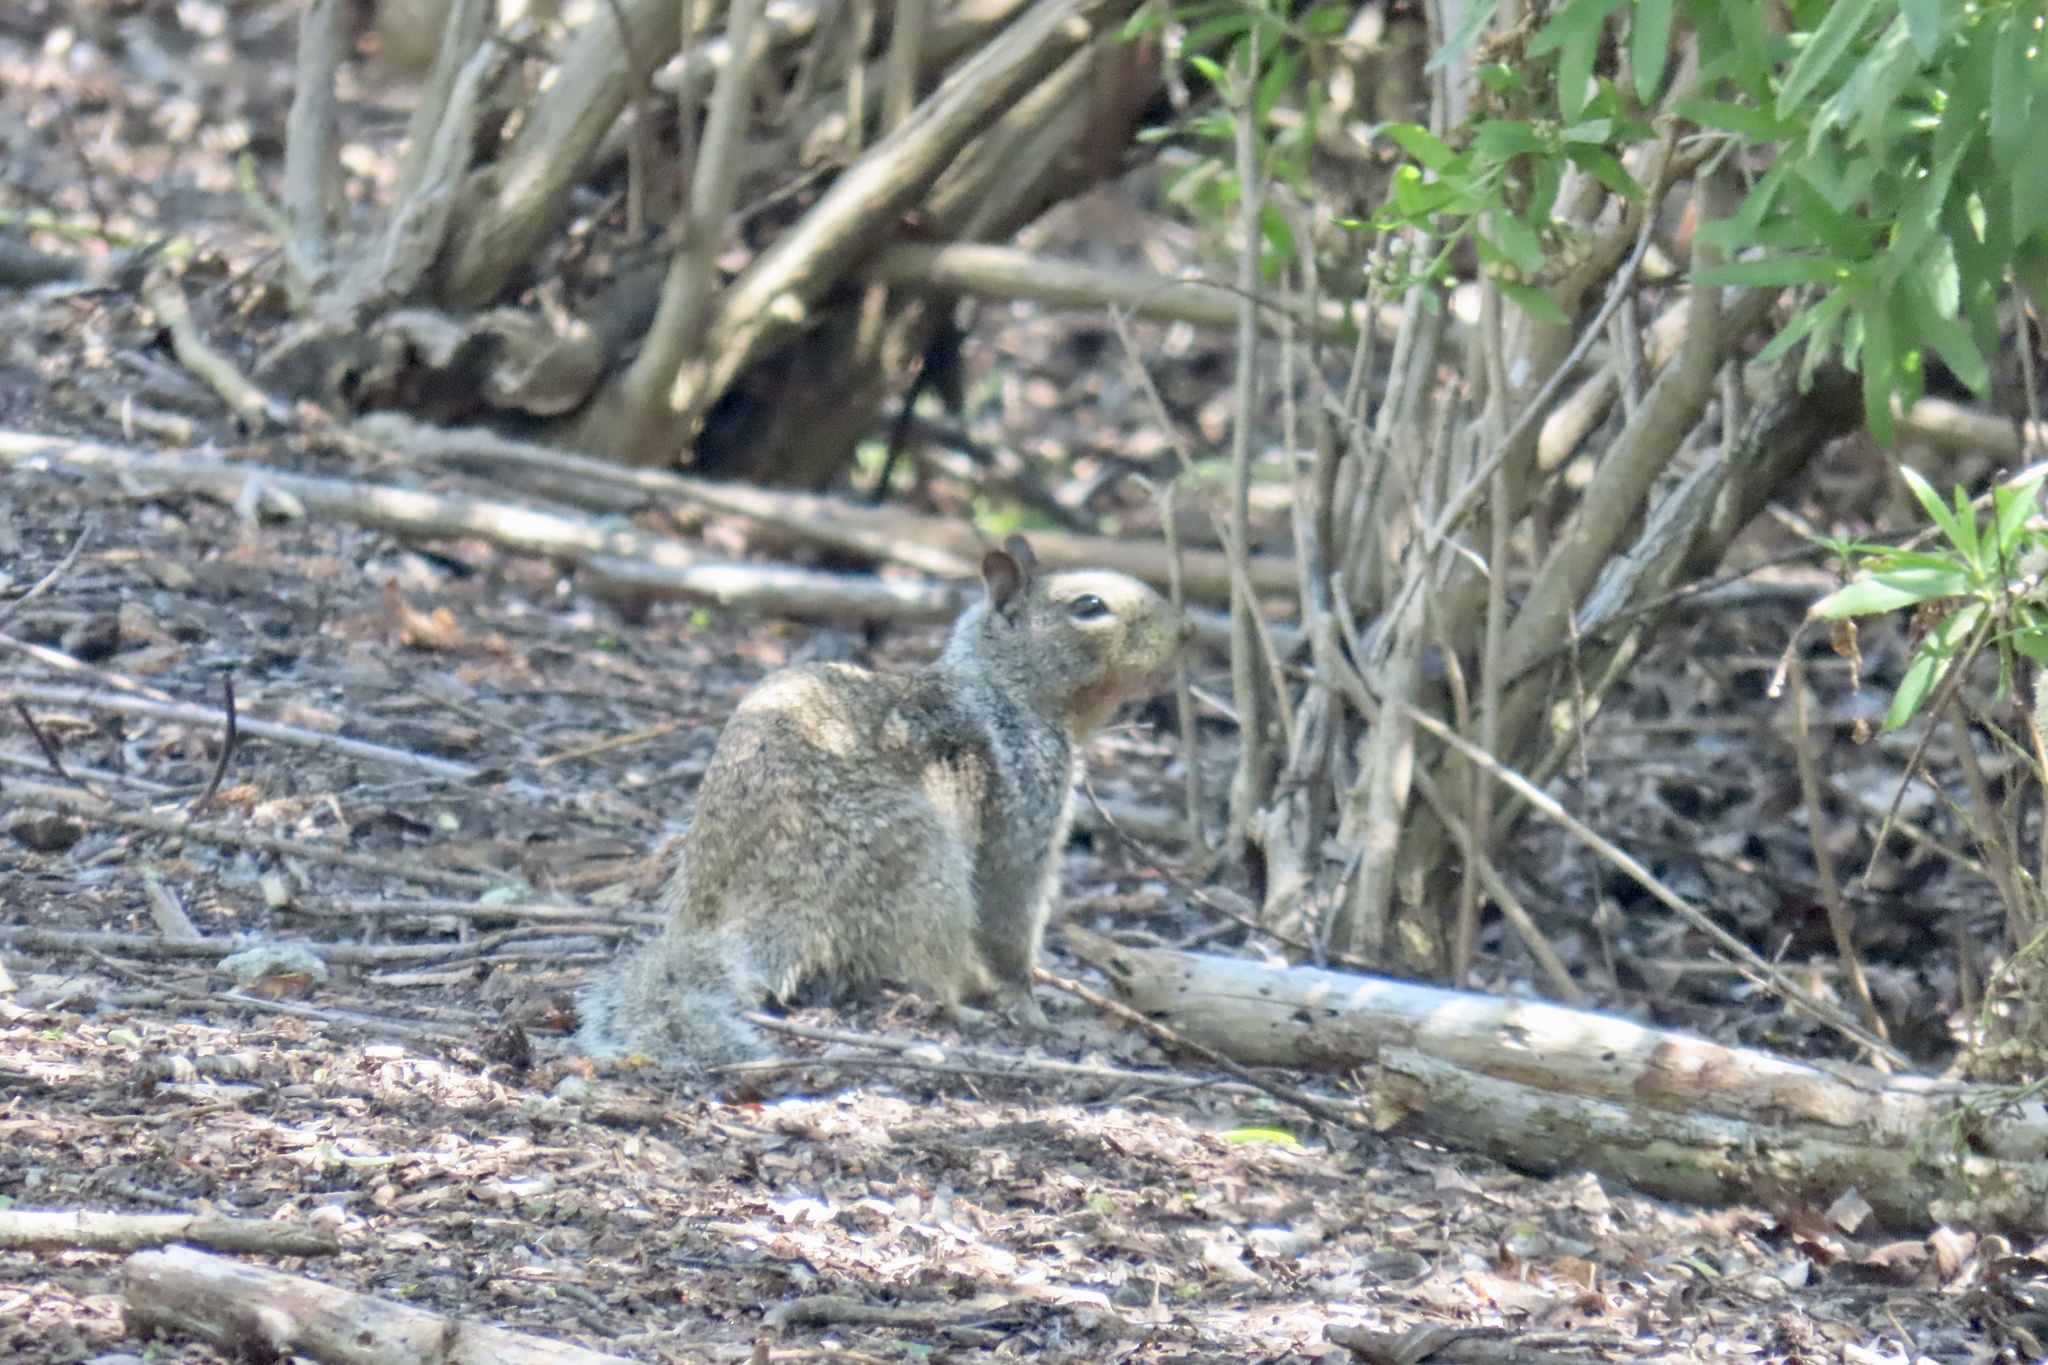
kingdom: Animalia
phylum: Chordata
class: Mammalia
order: Rodentia
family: Sciuridae
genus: Otospermophilus
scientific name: Otospermophilus beecheyi
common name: California ground squirrel
